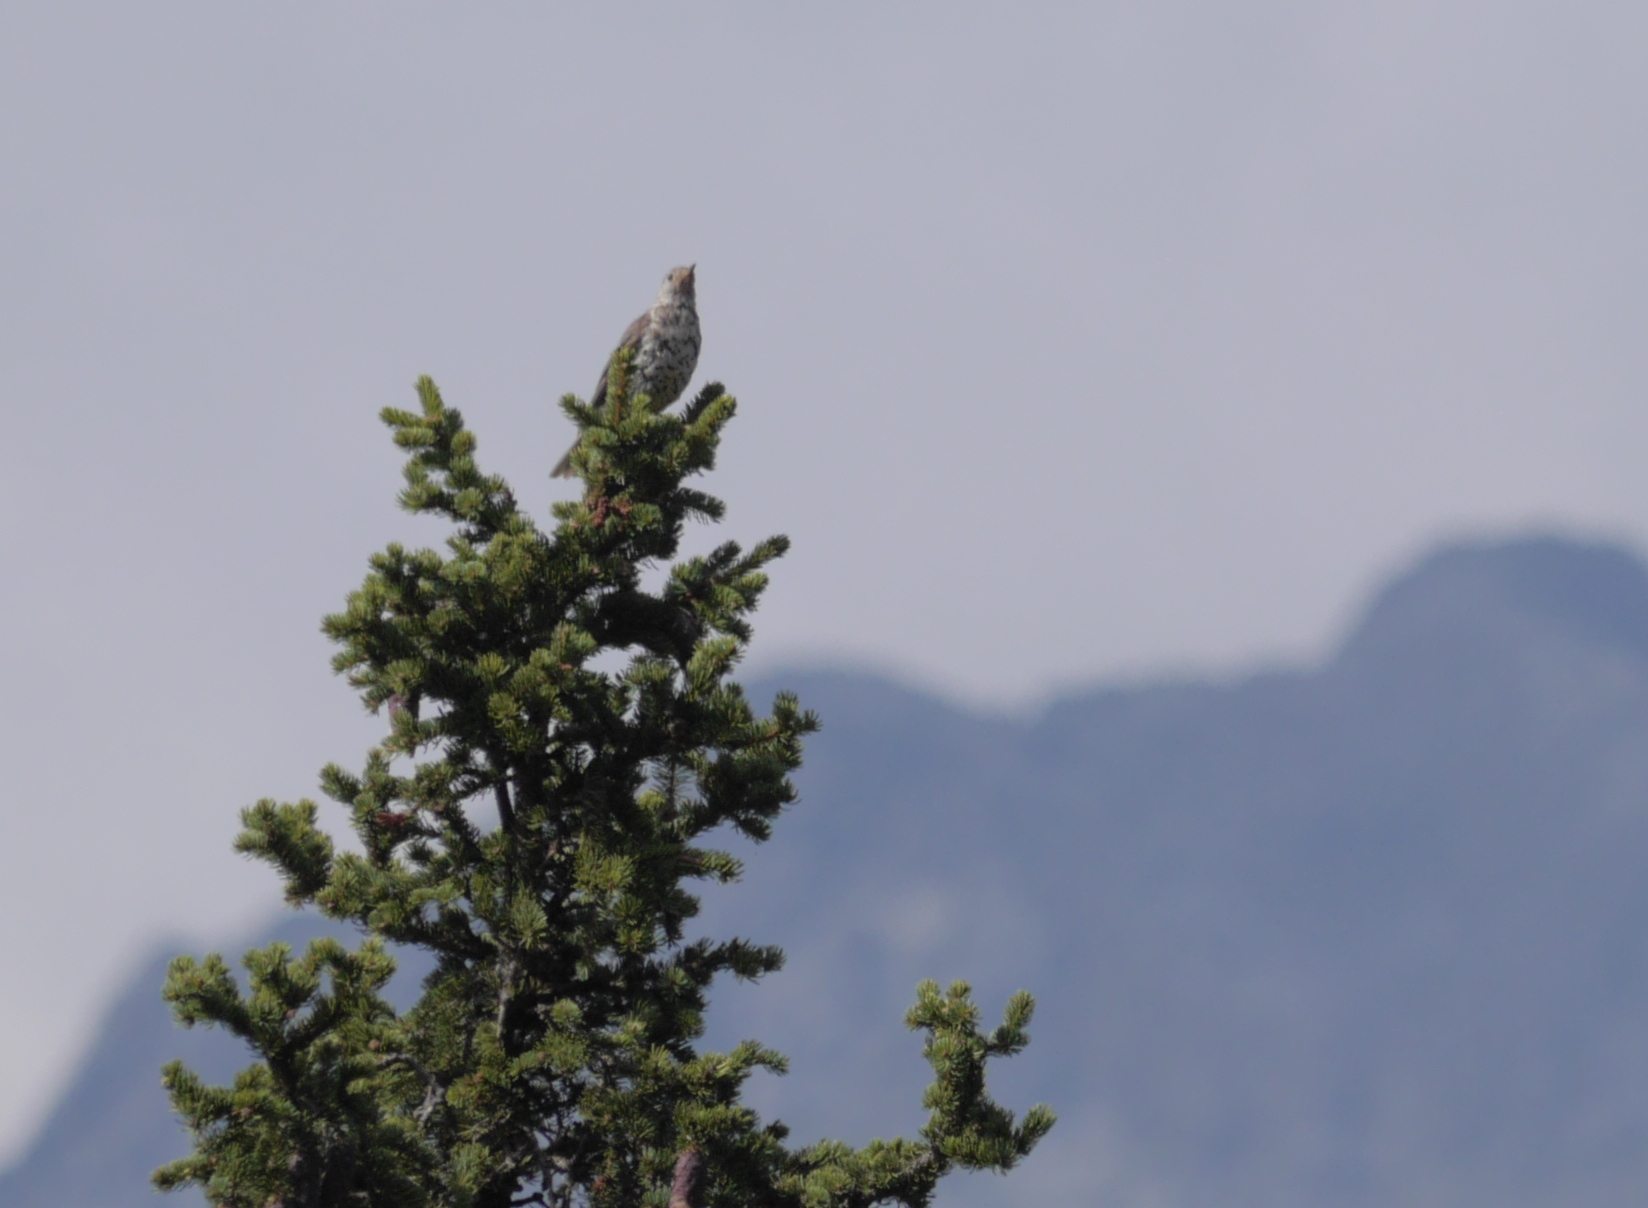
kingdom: Animalia
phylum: Chordata
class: Aves
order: Passeriformes
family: Turdidae
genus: Turdus
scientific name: Turdus viscivorus
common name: Mistle thrush
